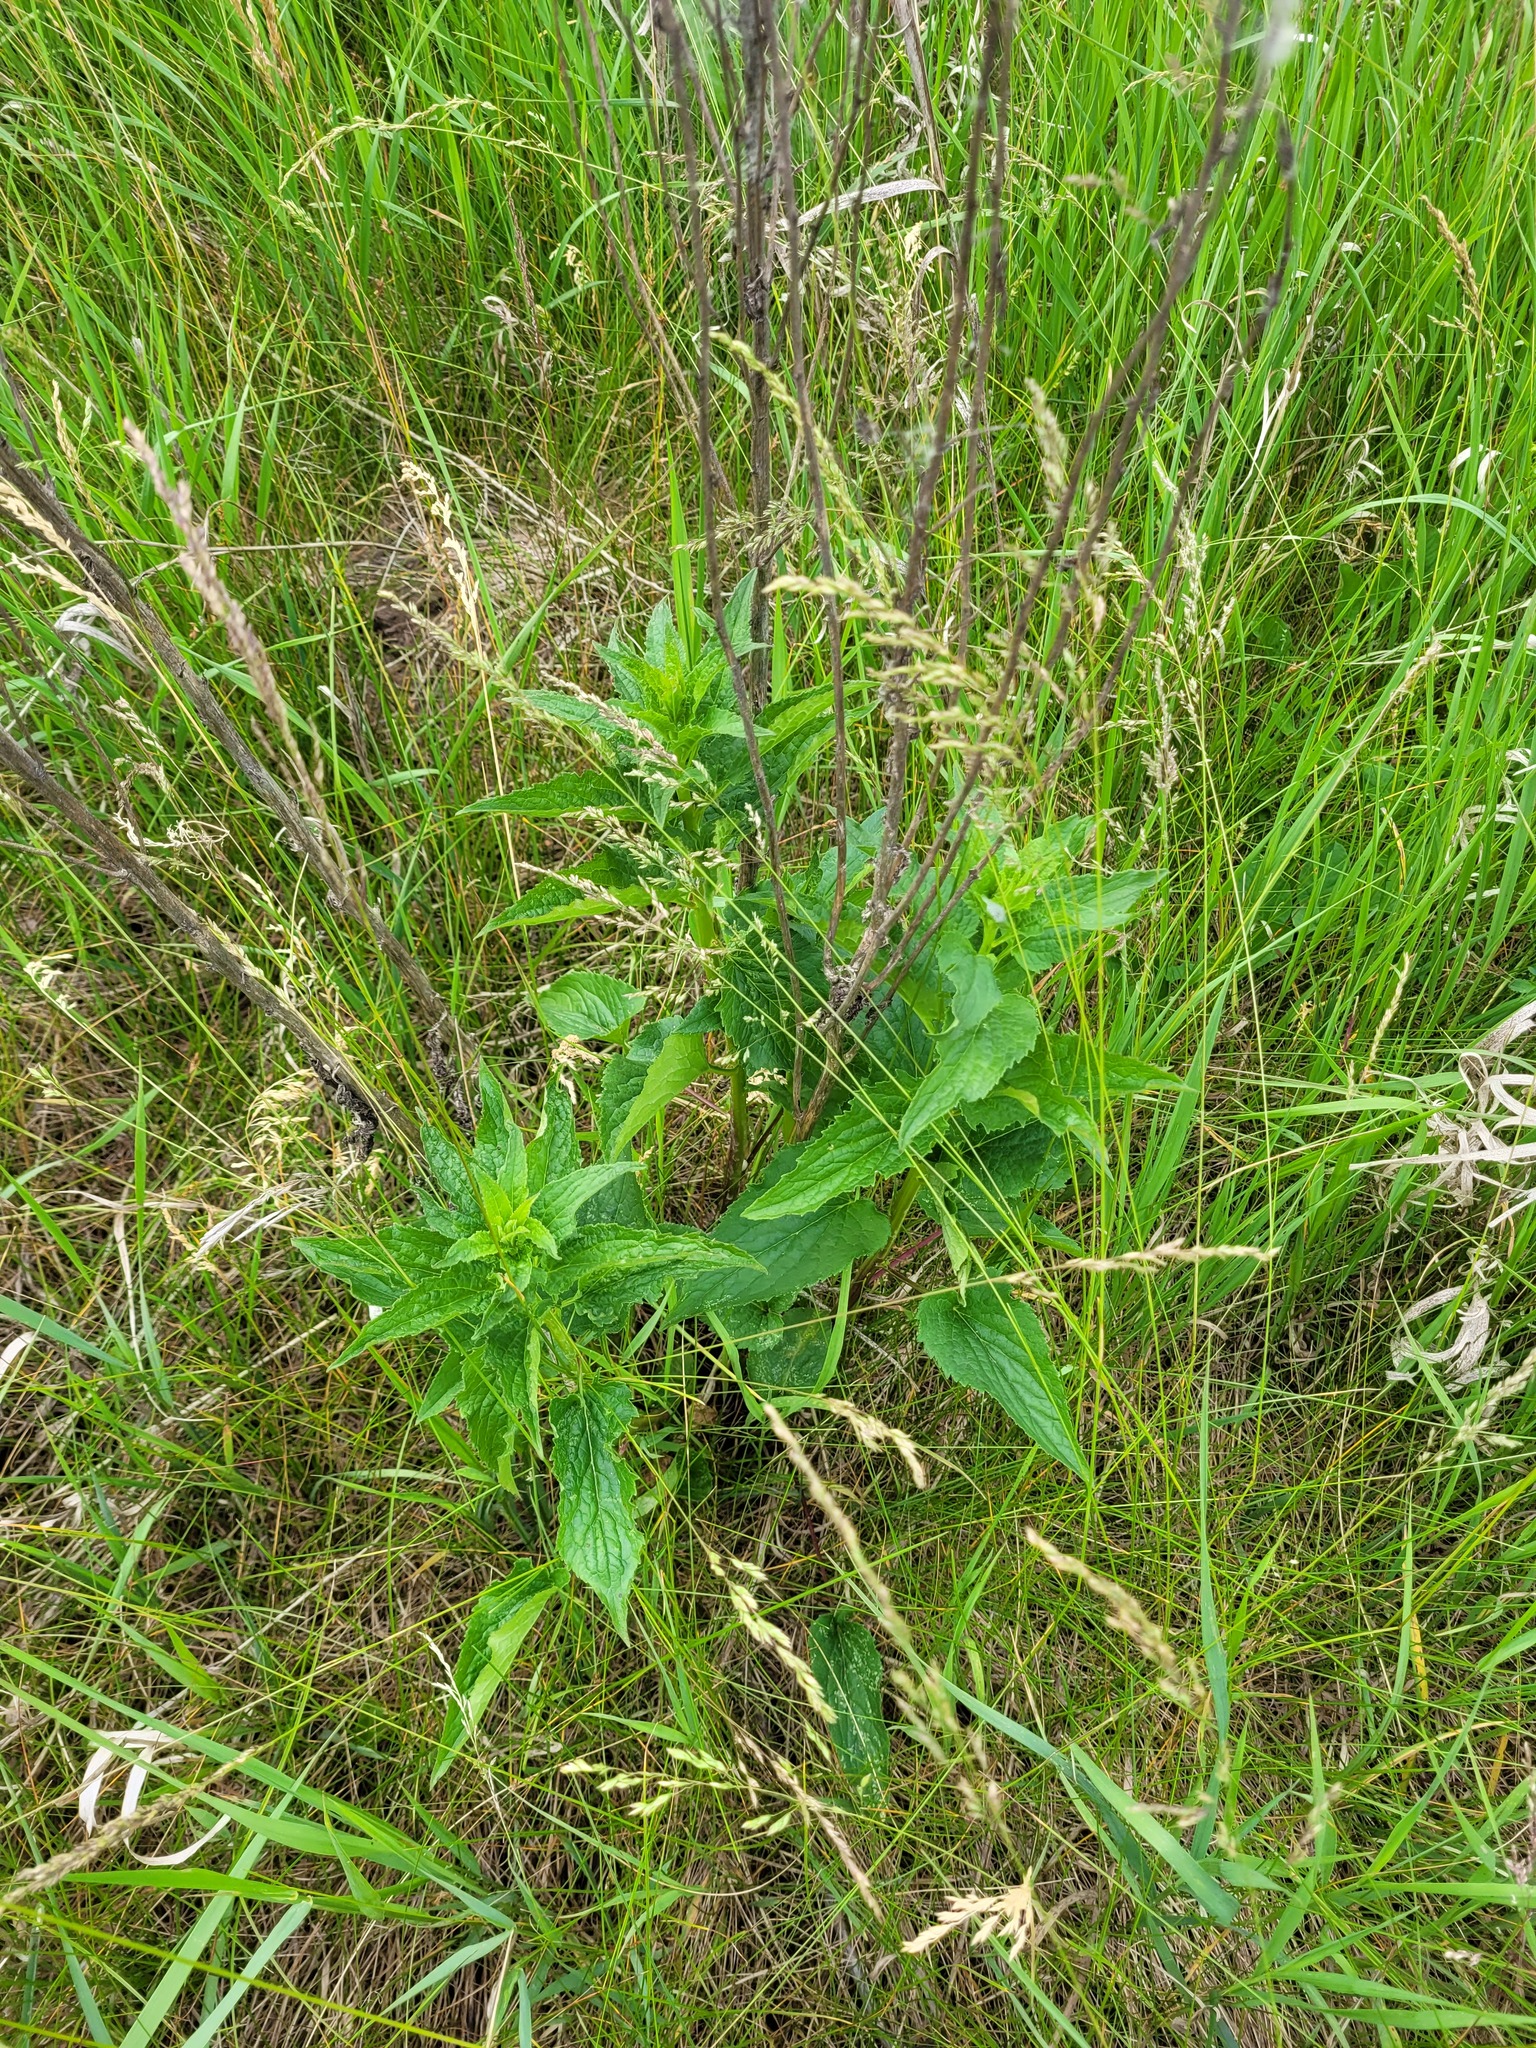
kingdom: Plantae
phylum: Tracheophyta
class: Magnoliopsida
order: Asterales
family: Campanulaceae
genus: Campanula
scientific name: Campanula rapunculoides
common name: Creeping bellflower
